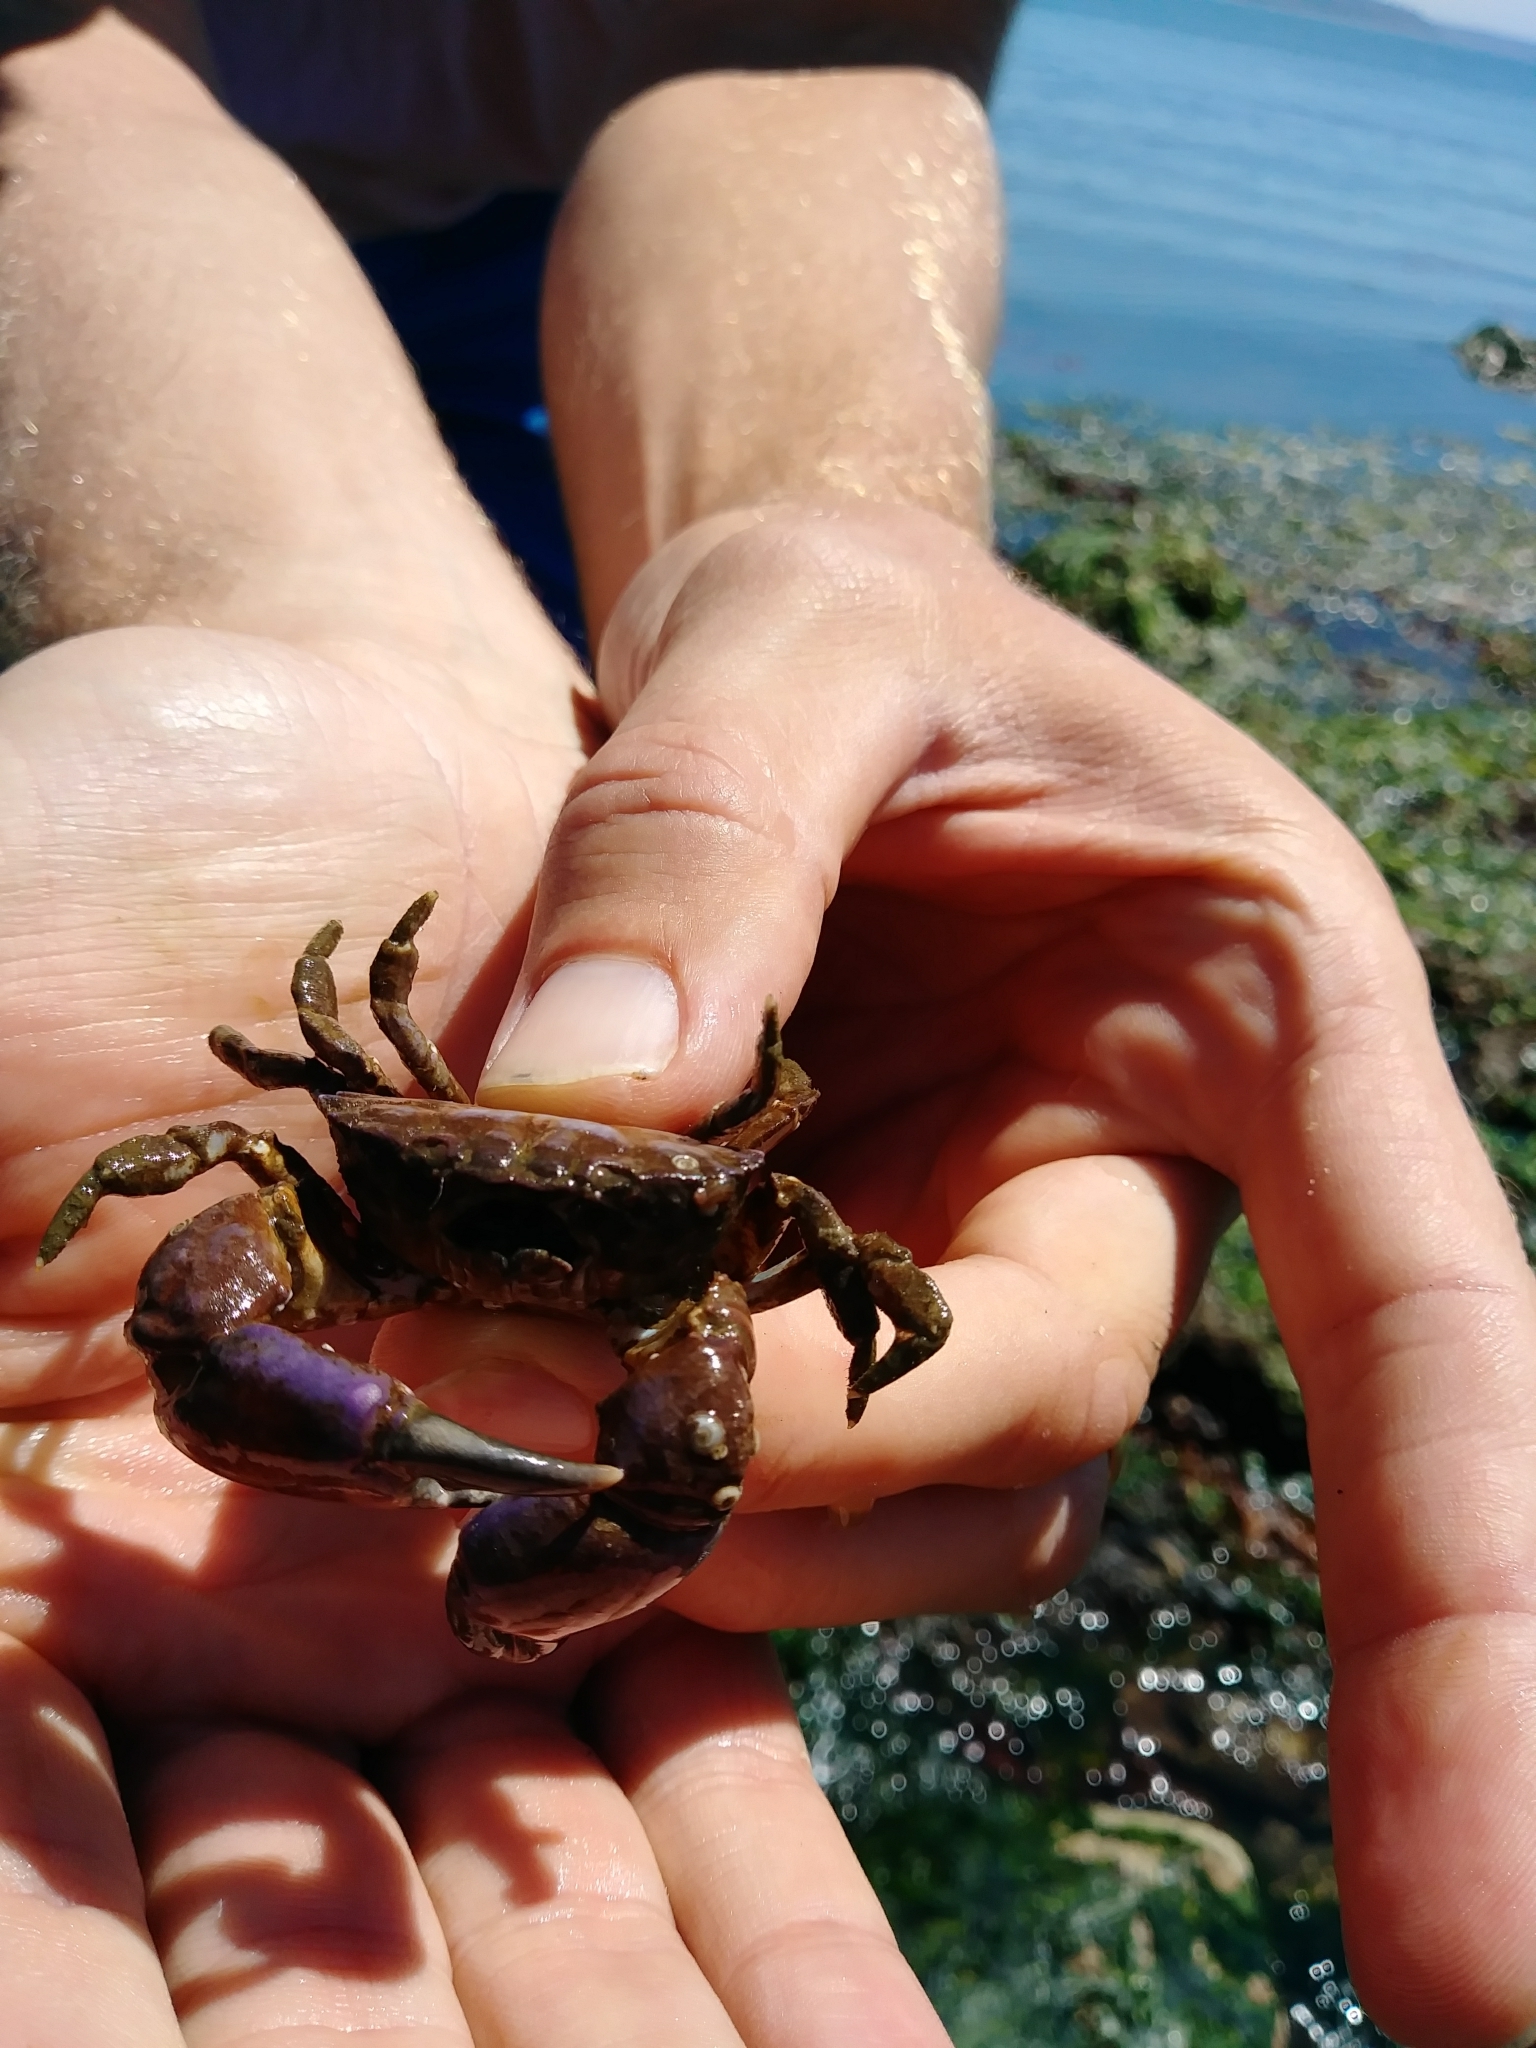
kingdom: Animalia
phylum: Arthropoda
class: Malacostraca
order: Decapoda
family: Panopeidae
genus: Lophopanopeus
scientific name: Lophopanopeus bellus
